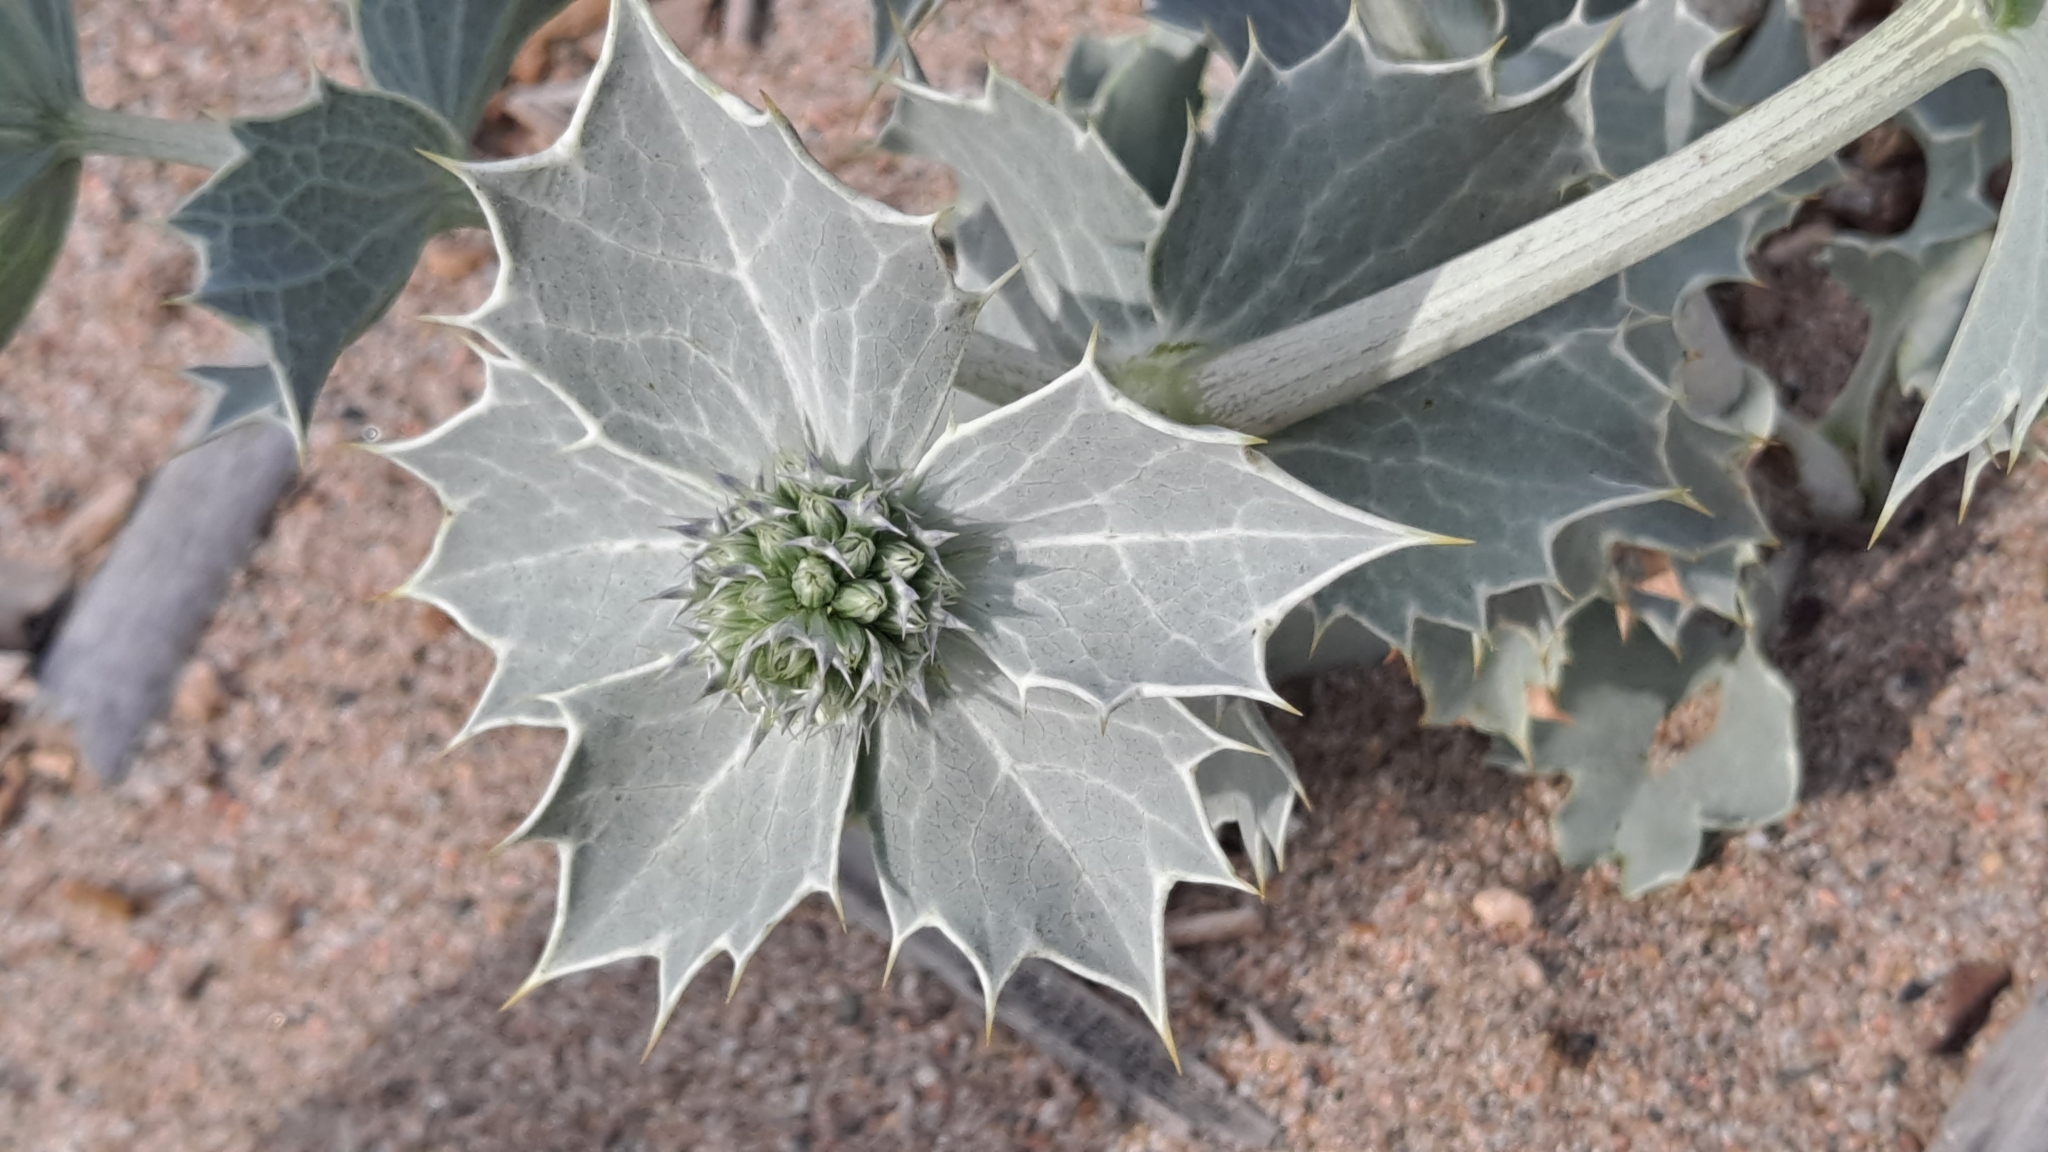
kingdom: Plantae
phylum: Tracheophyta
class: Magnoliopsida
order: Apiales
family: Apiaceae
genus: Eryngium
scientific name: Eryngium maritimum
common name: Sea-holly
